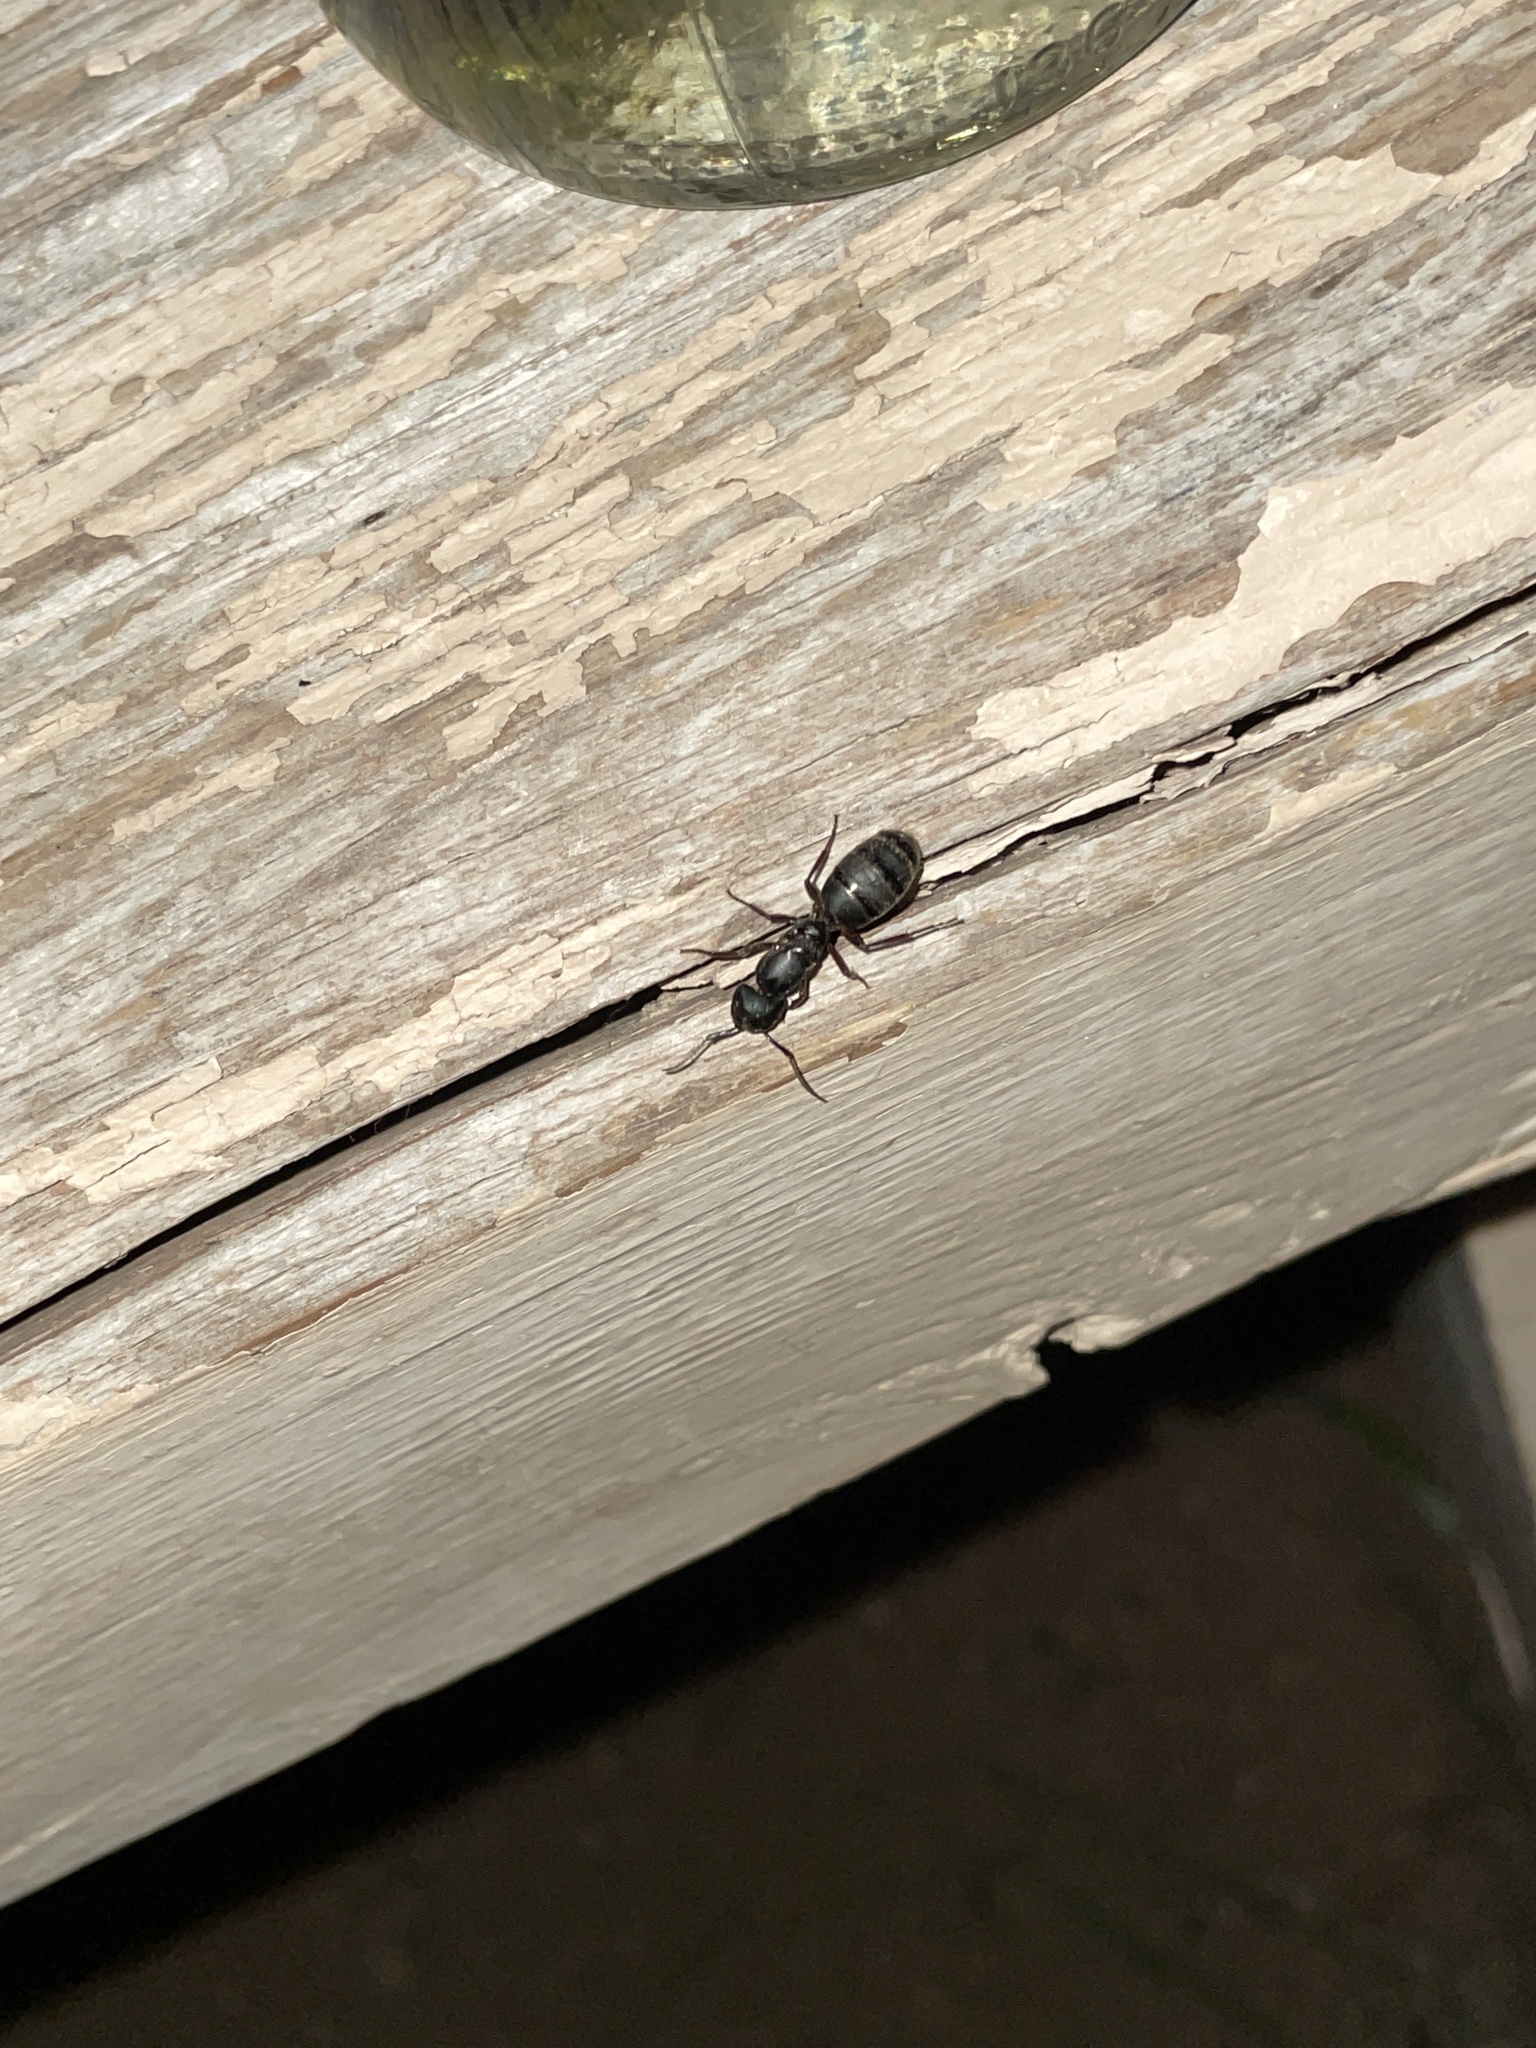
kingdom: Animalia
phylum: Arthropoda
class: Insecta
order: Hymenoptera
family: Formicidae
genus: Camponotus
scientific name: Camponotus modoc
